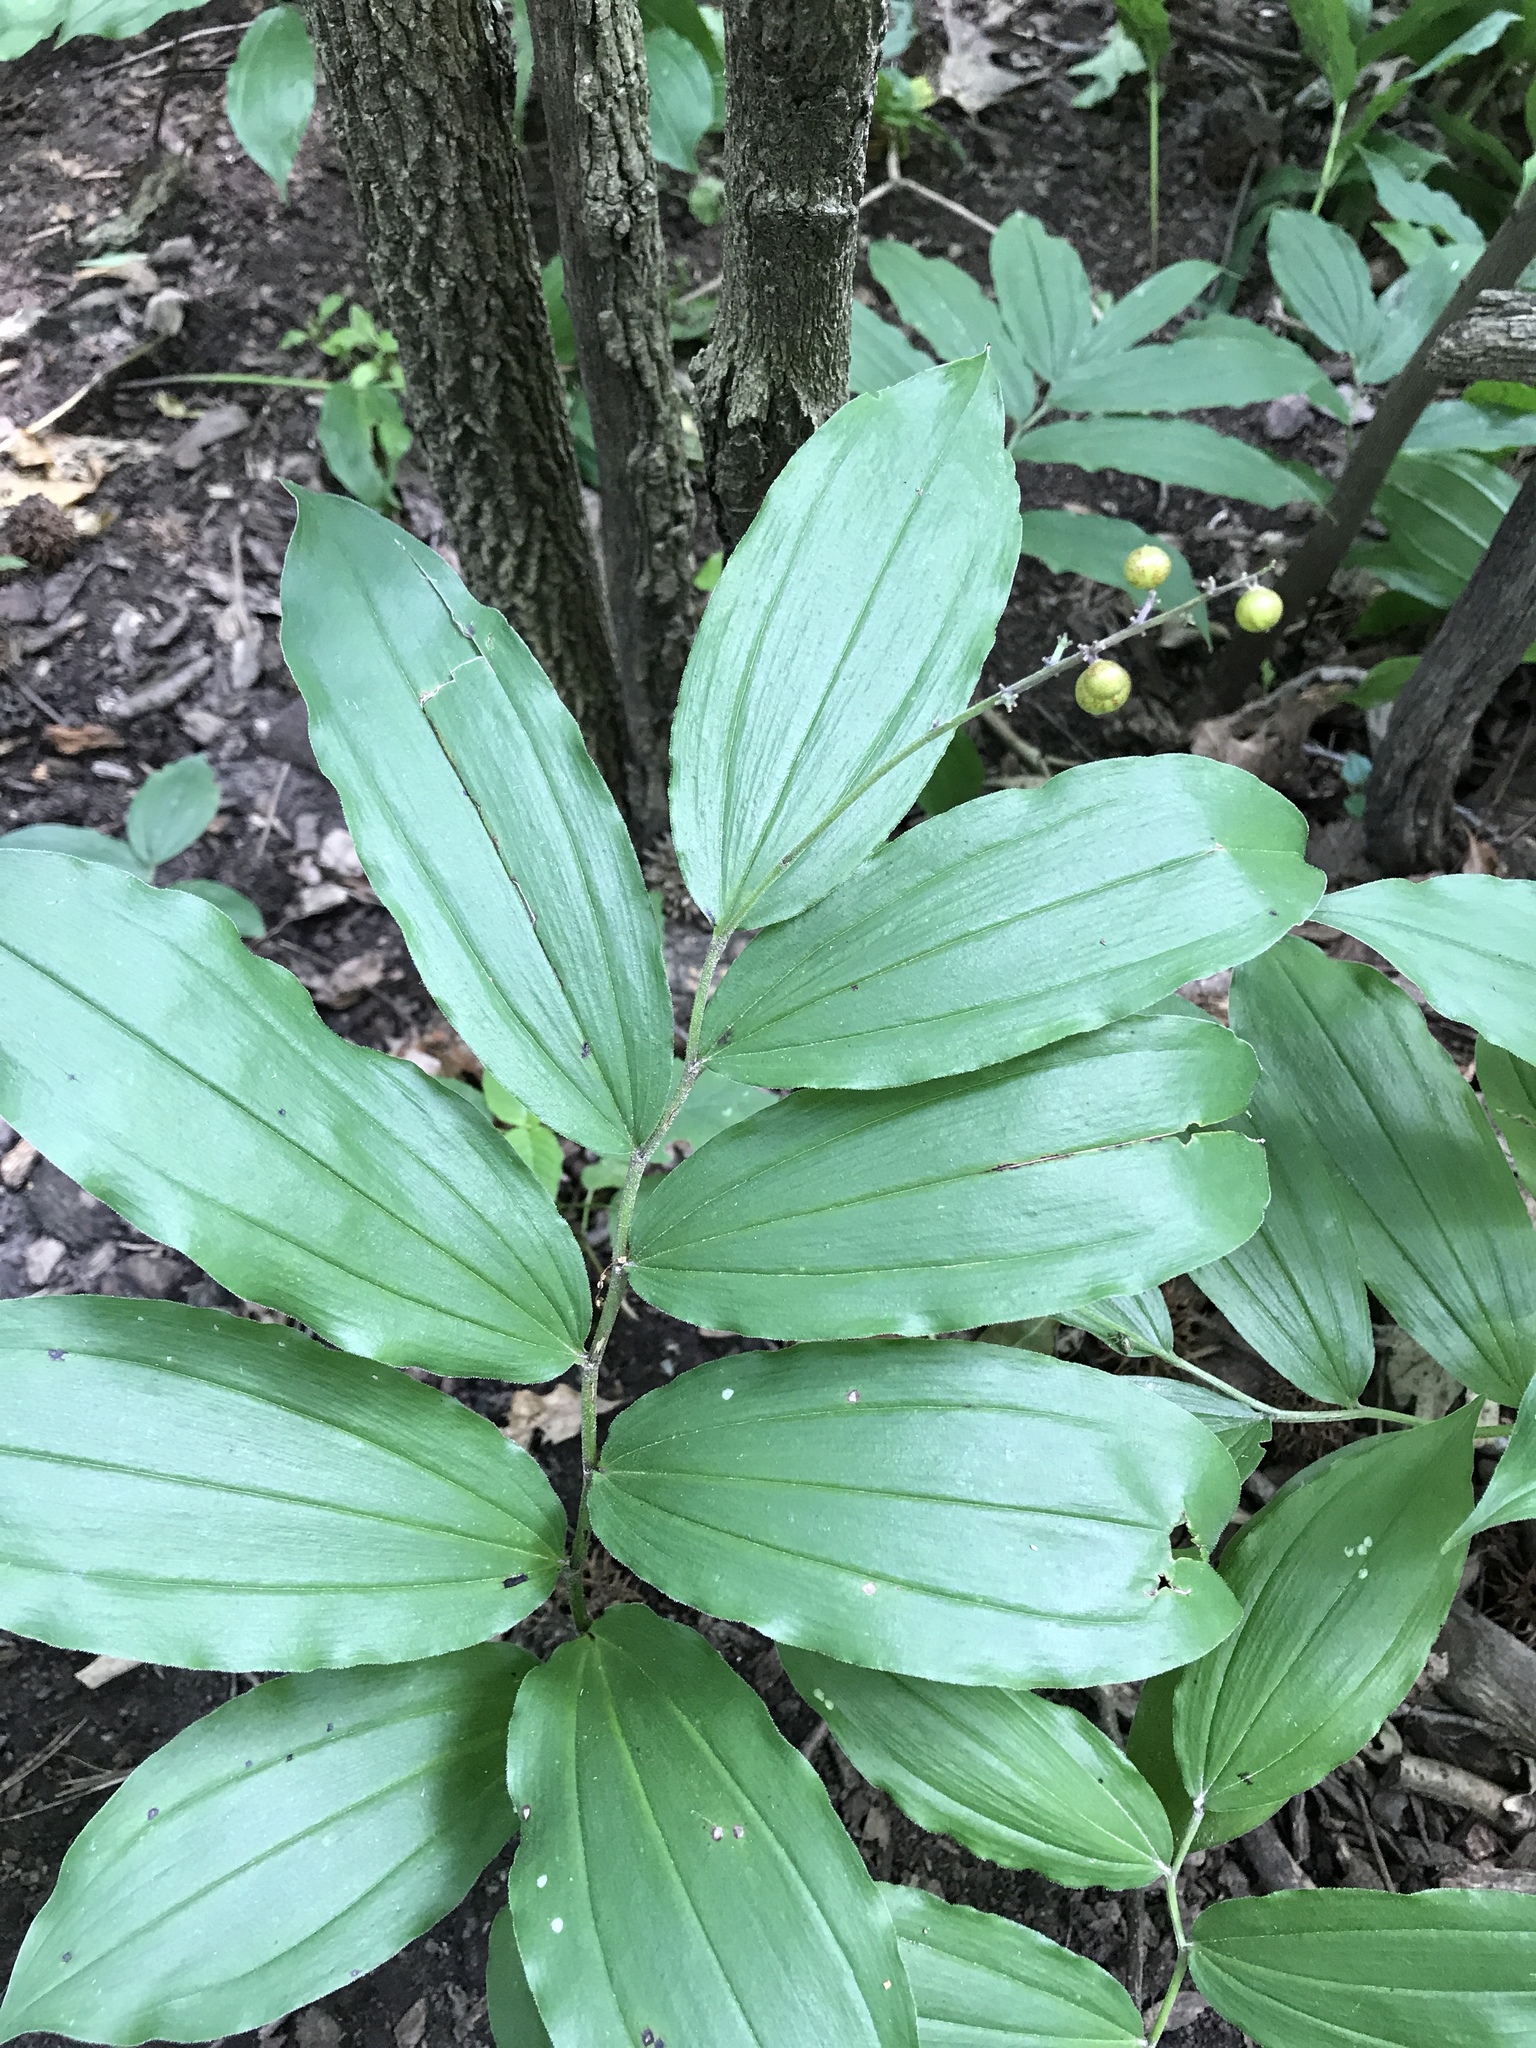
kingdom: Plantae
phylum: Tracheophyta
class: Liliopsida
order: Asparagales
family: Asparagaceae
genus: Maianthemum
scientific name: Maianthemum racemosum
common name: False spikenard
